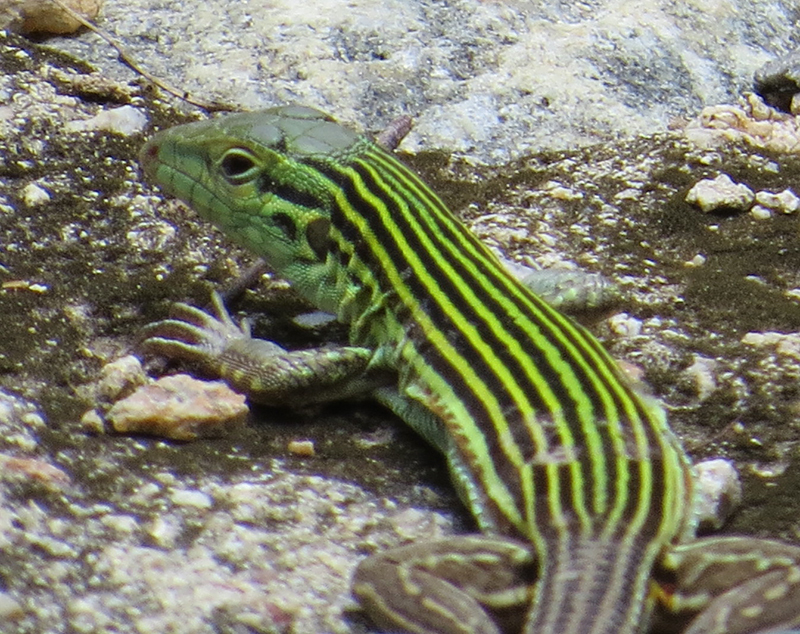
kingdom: Animalia
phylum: Chordata
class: Squamata
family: Teiidae
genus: Aspidoscelis
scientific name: Aspidoscelis deppii
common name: Blackbelly racerunner
